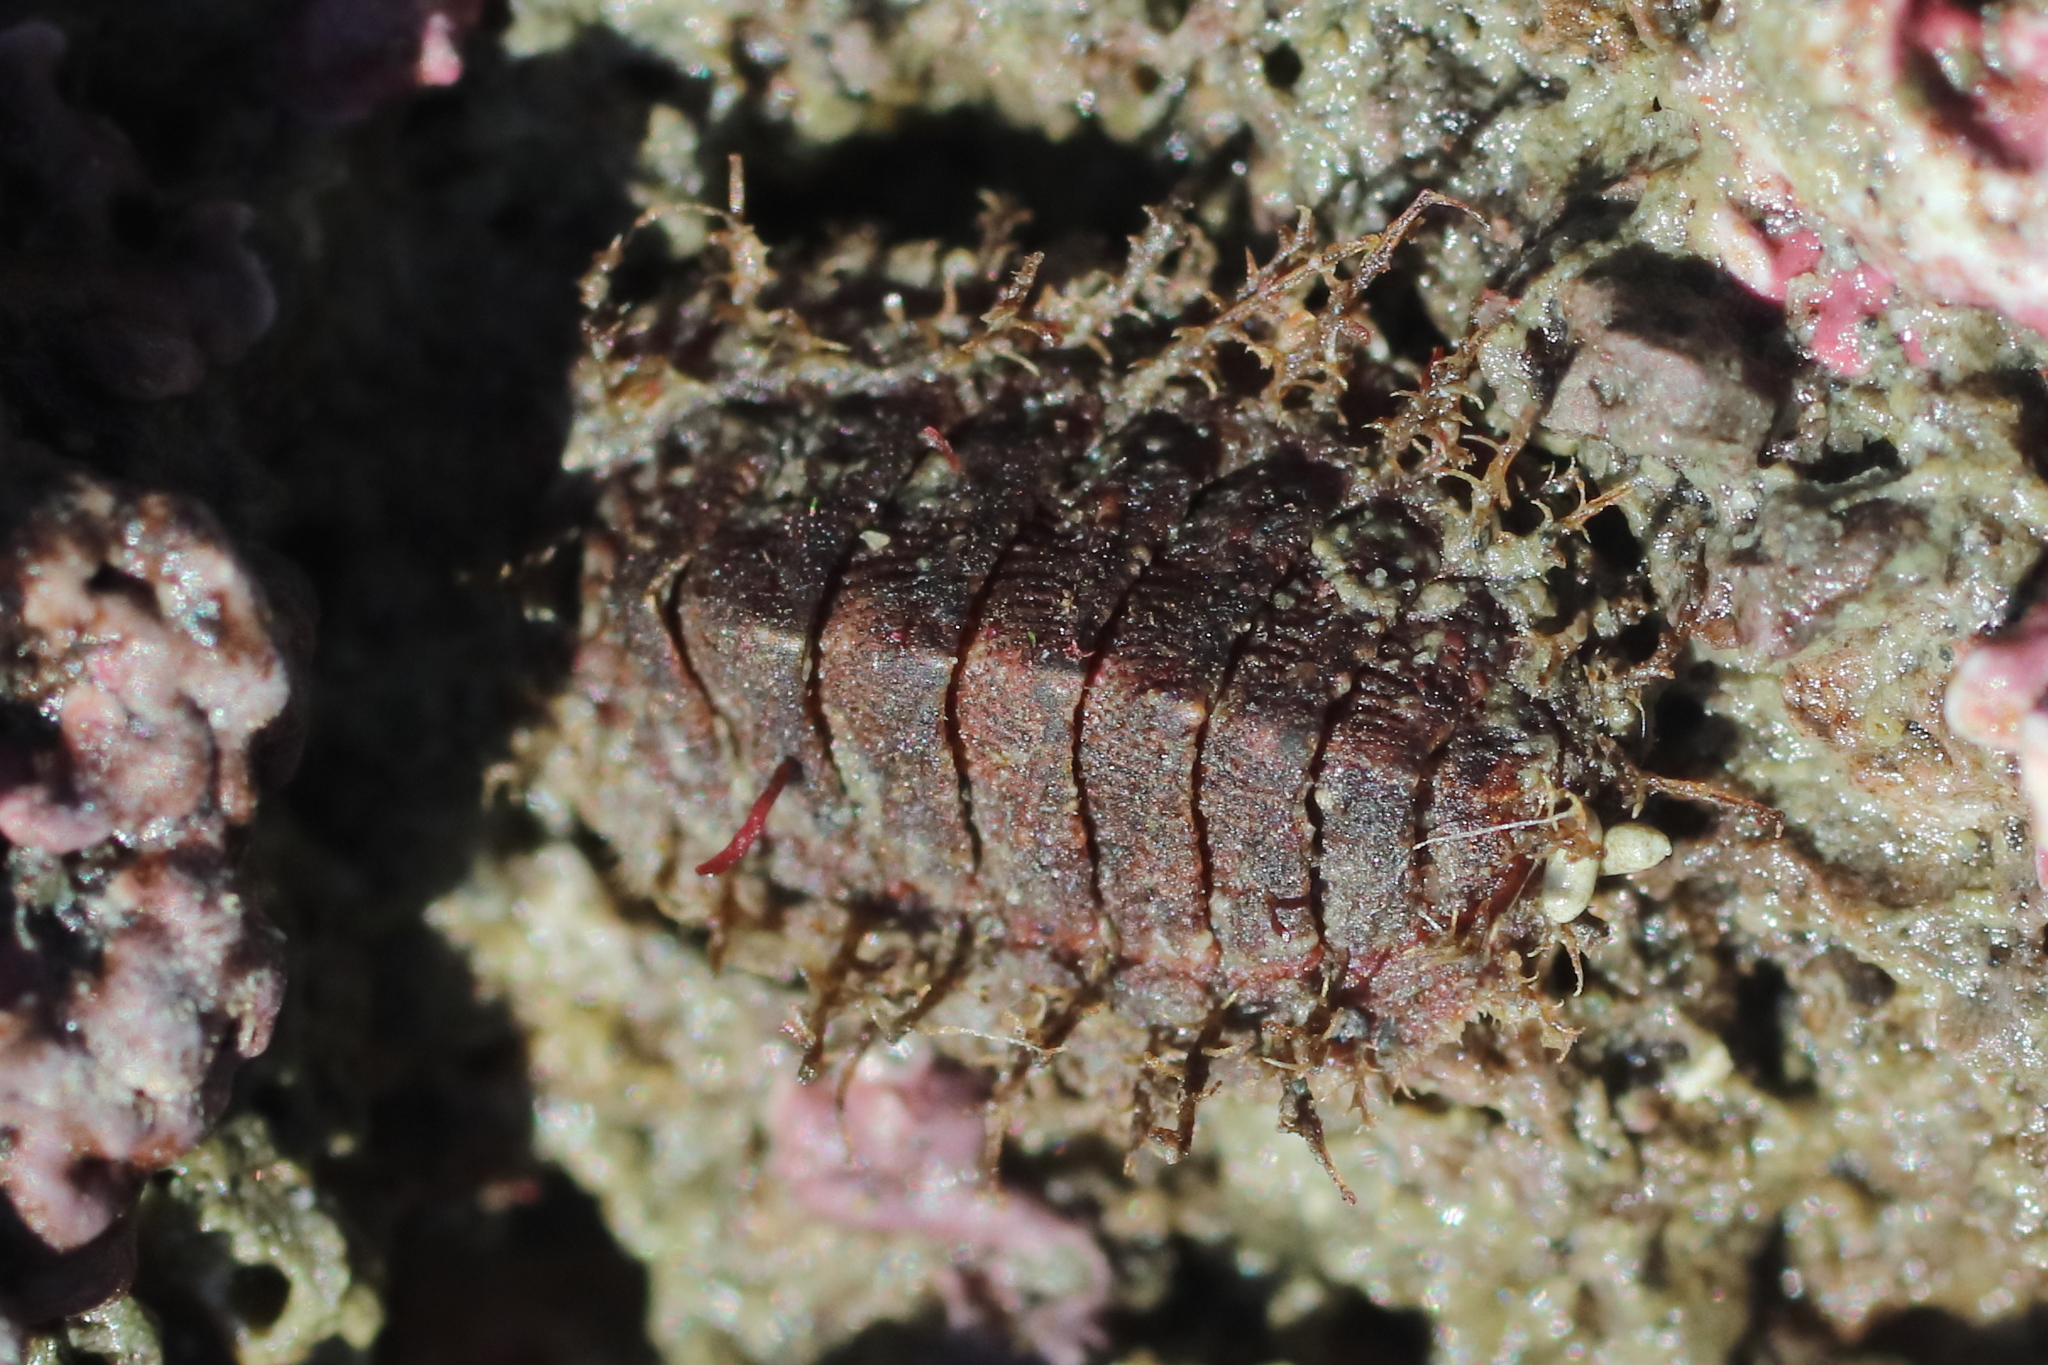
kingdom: Animalia
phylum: Mollusca
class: Polyplacophora
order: Chitonida
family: Mopaliidae
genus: Mopalia
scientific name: Mopalia sinuata
